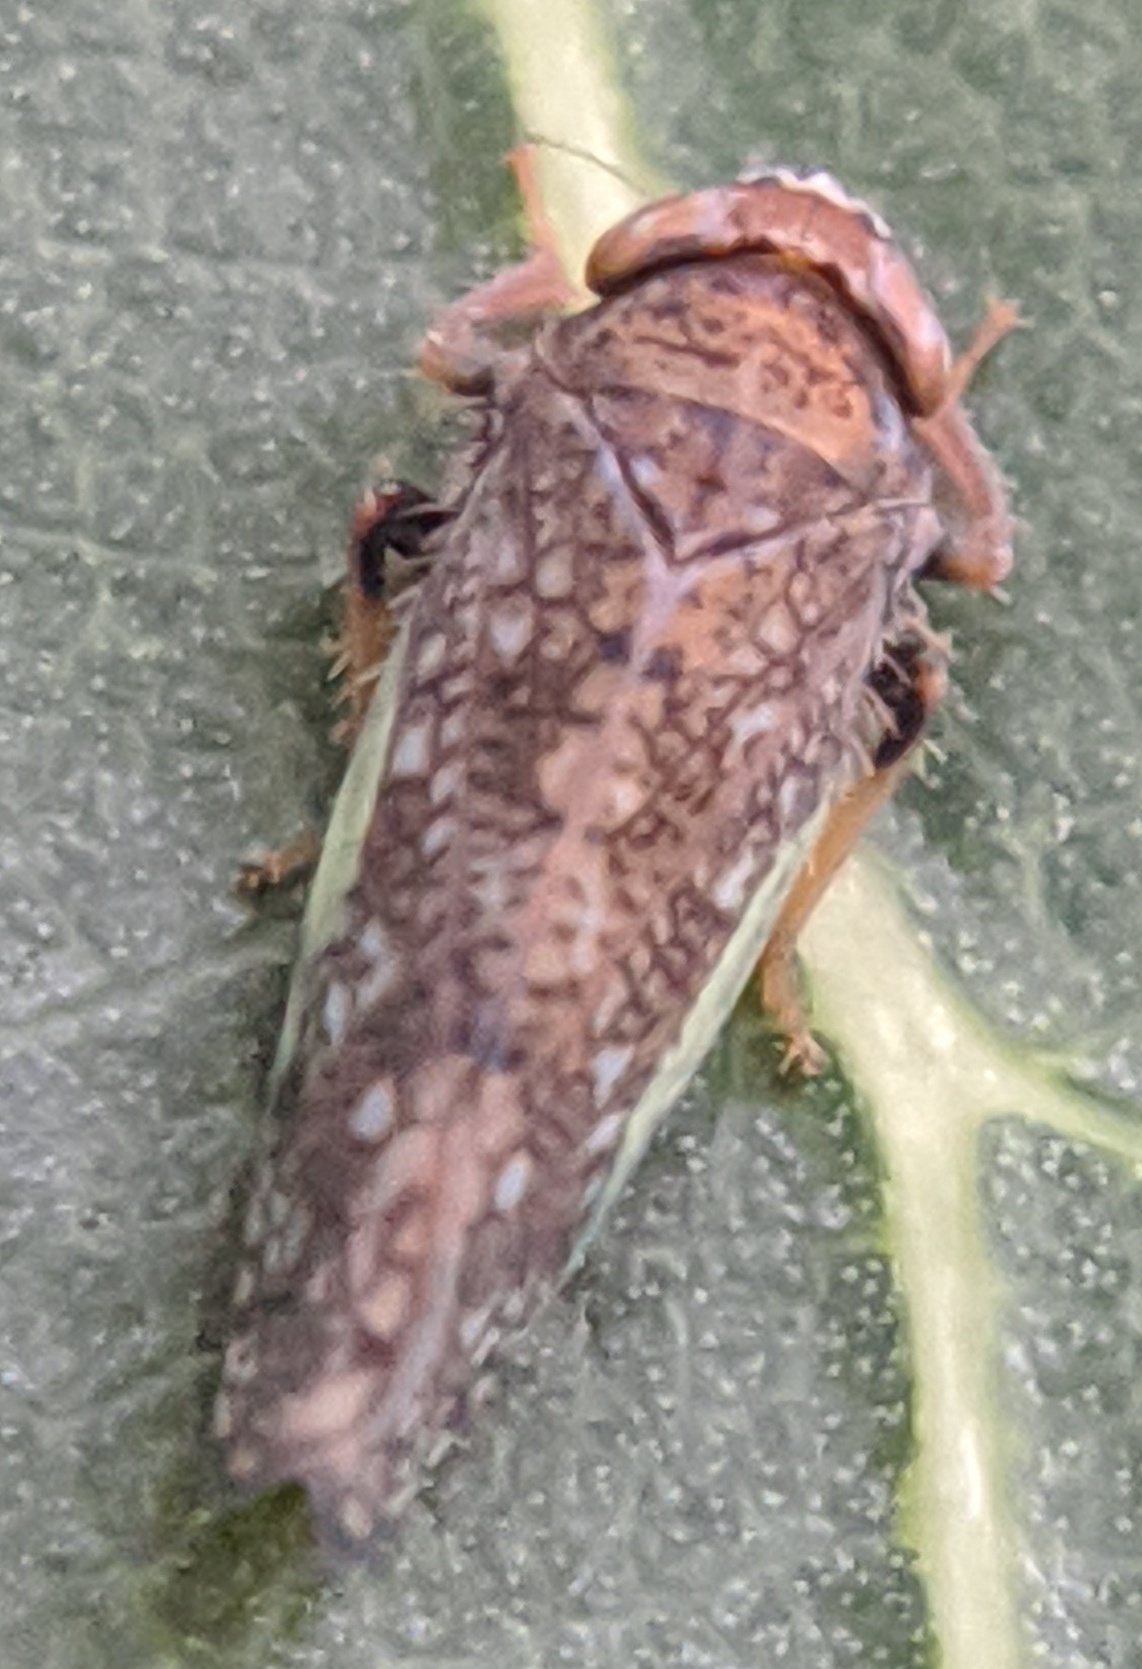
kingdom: Animalia
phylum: Arthropoda
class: Insecta
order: Hemiptera
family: Cicadellidae
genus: Orientus
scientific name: Orientus ishidae
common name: Japanese leafhopper
